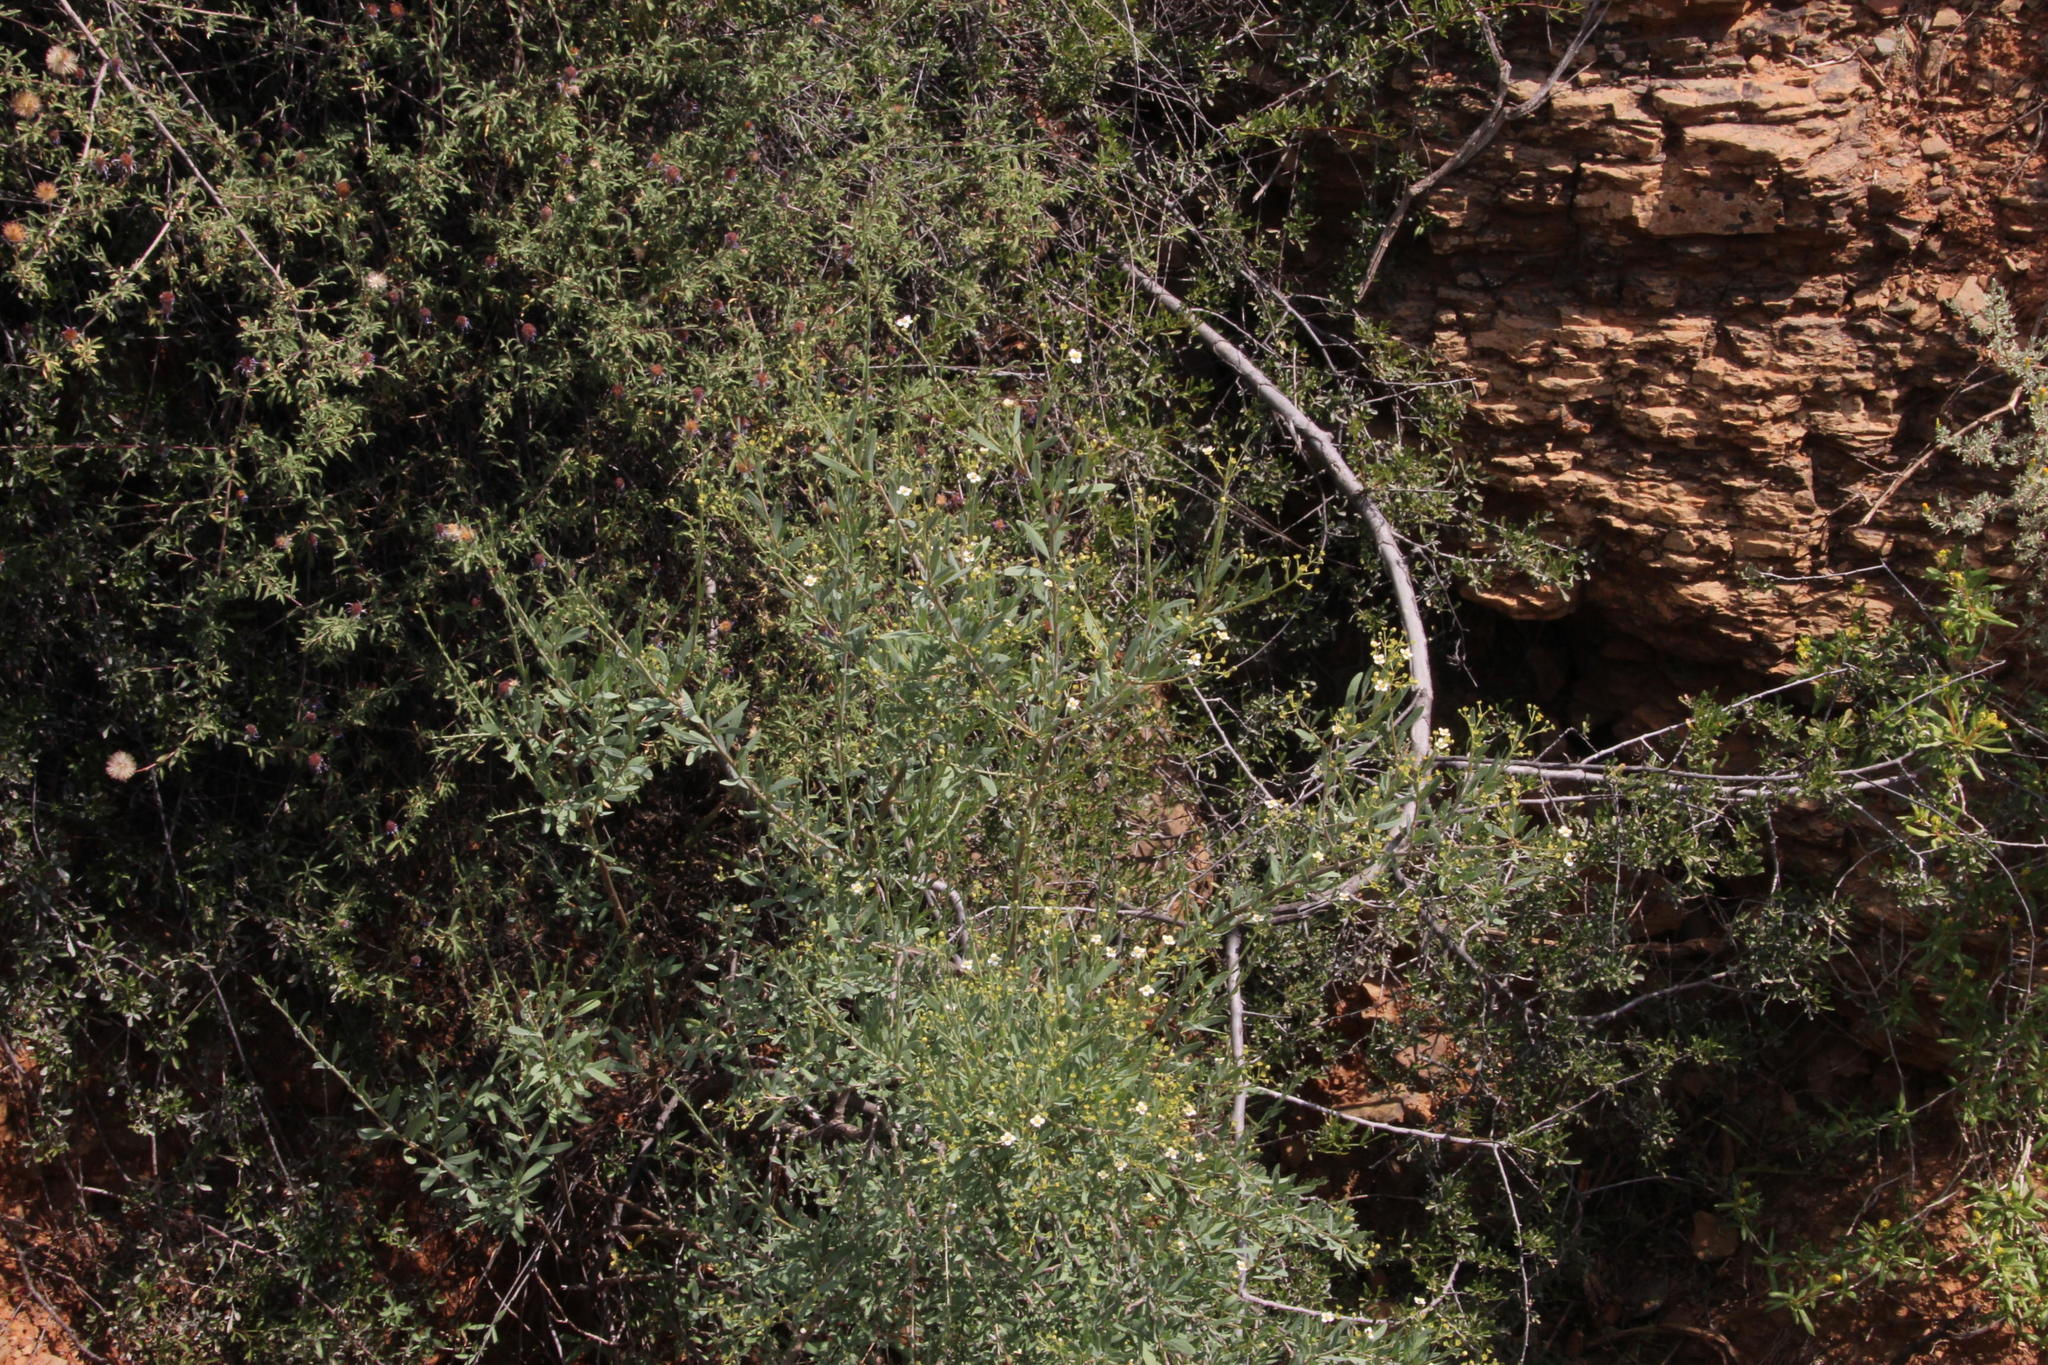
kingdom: Plantae
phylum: Tracheophyta
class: Magnoliopsida
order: Solanales
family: Montiniaceae
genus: Montinia
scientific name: Montinia caryophyllacea
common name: Wild clove-bush
